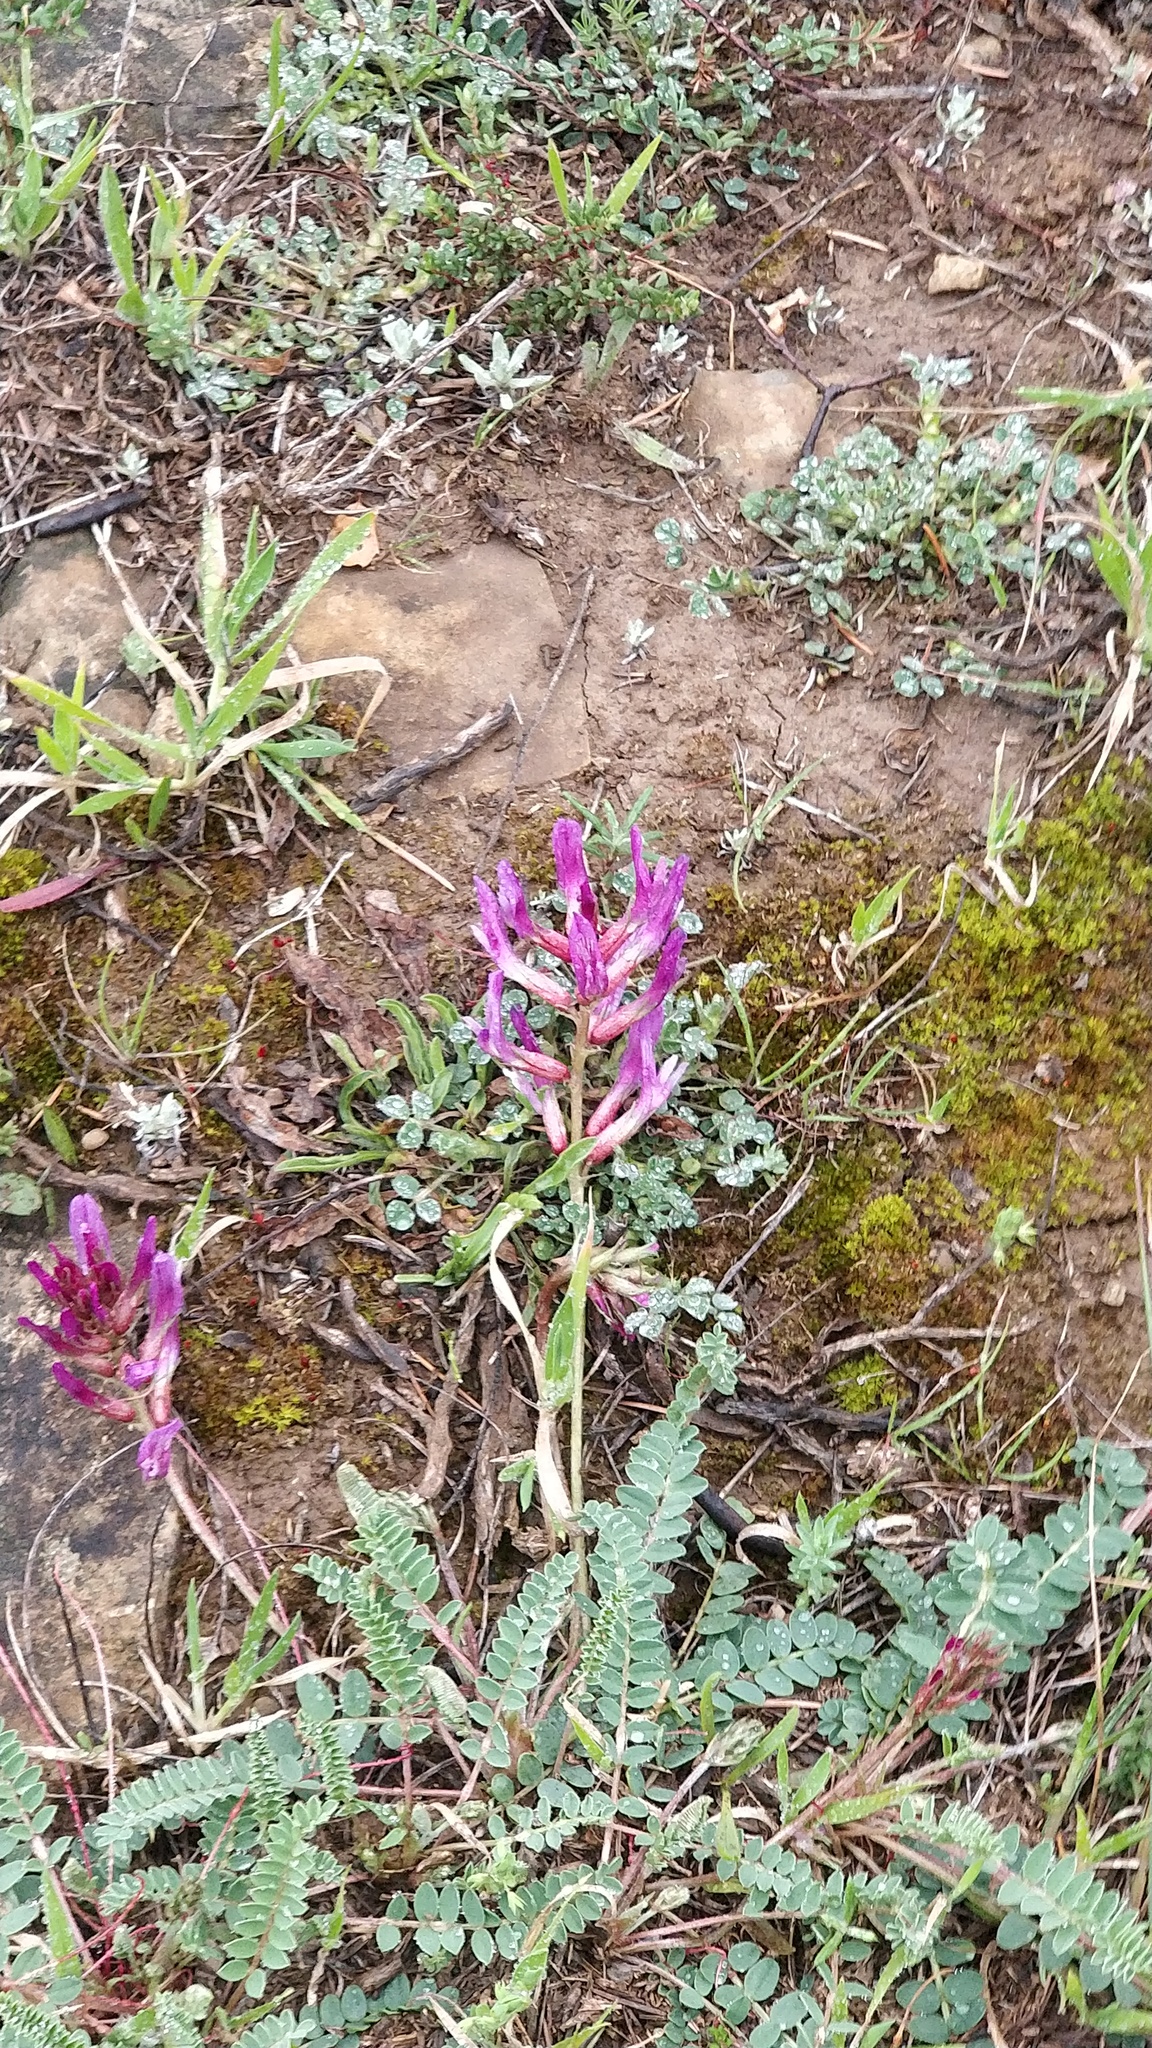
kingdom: Plantae
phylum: Tracheophyta
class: Magnoliopsida
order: Fabales
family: Fabaceae
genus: Astragalus
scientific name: Astragalus monspessulanus
